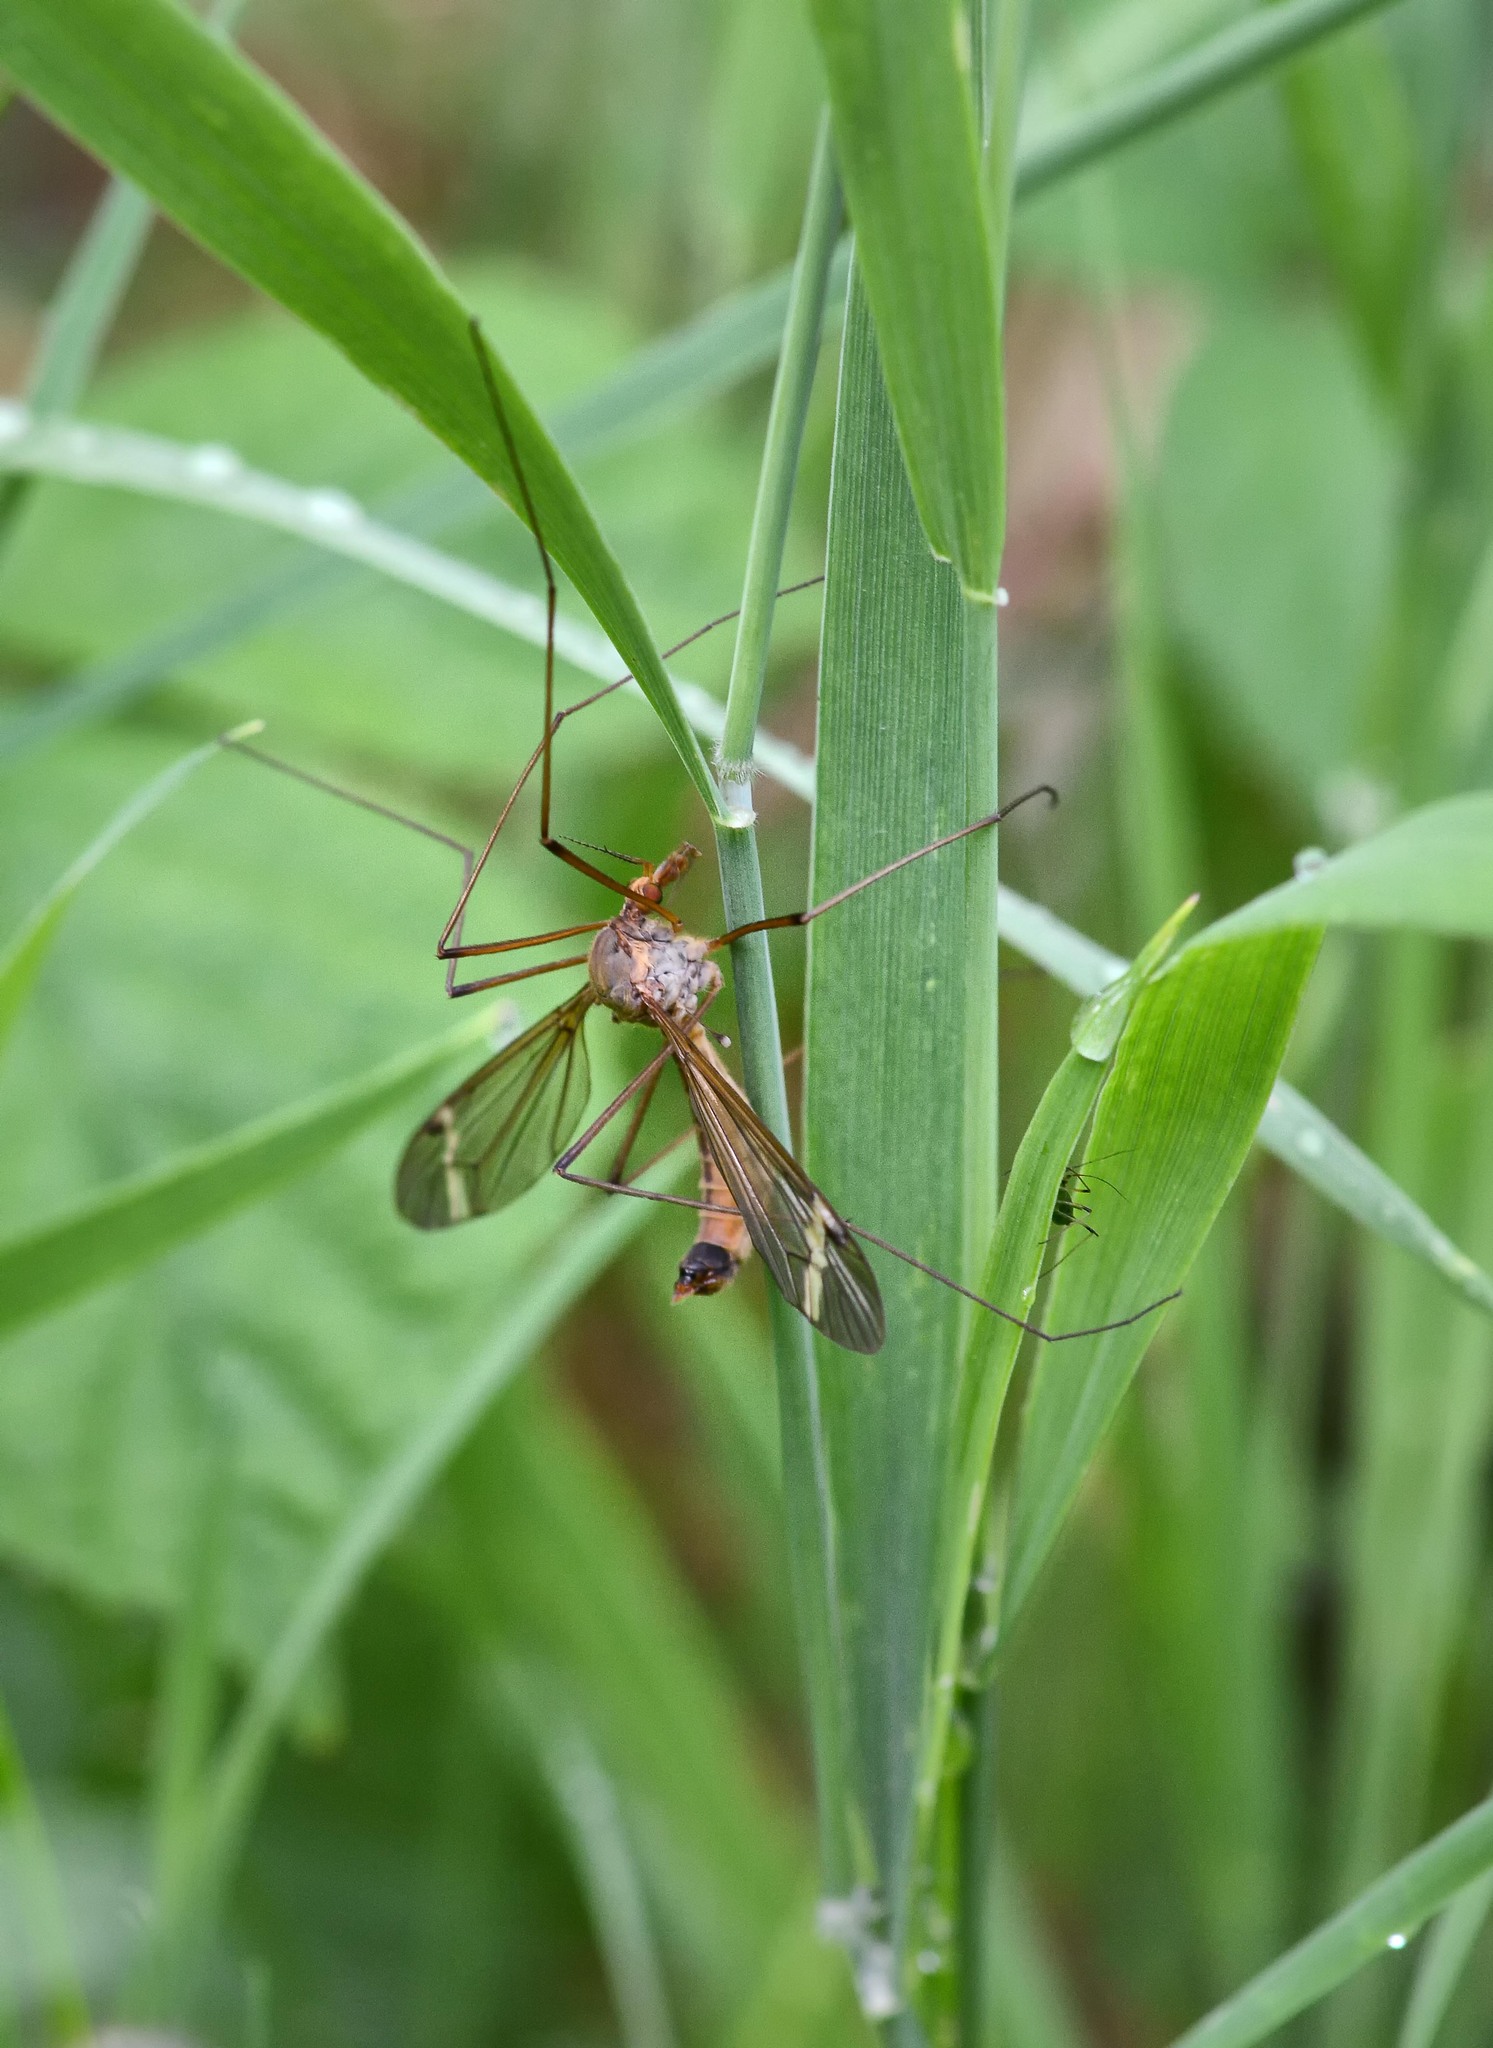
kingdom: Animalia
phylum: Arthropoda
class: Insecta
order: Diptera
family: Tipulidae
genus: Tipula
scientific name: Tipula fascipennis
